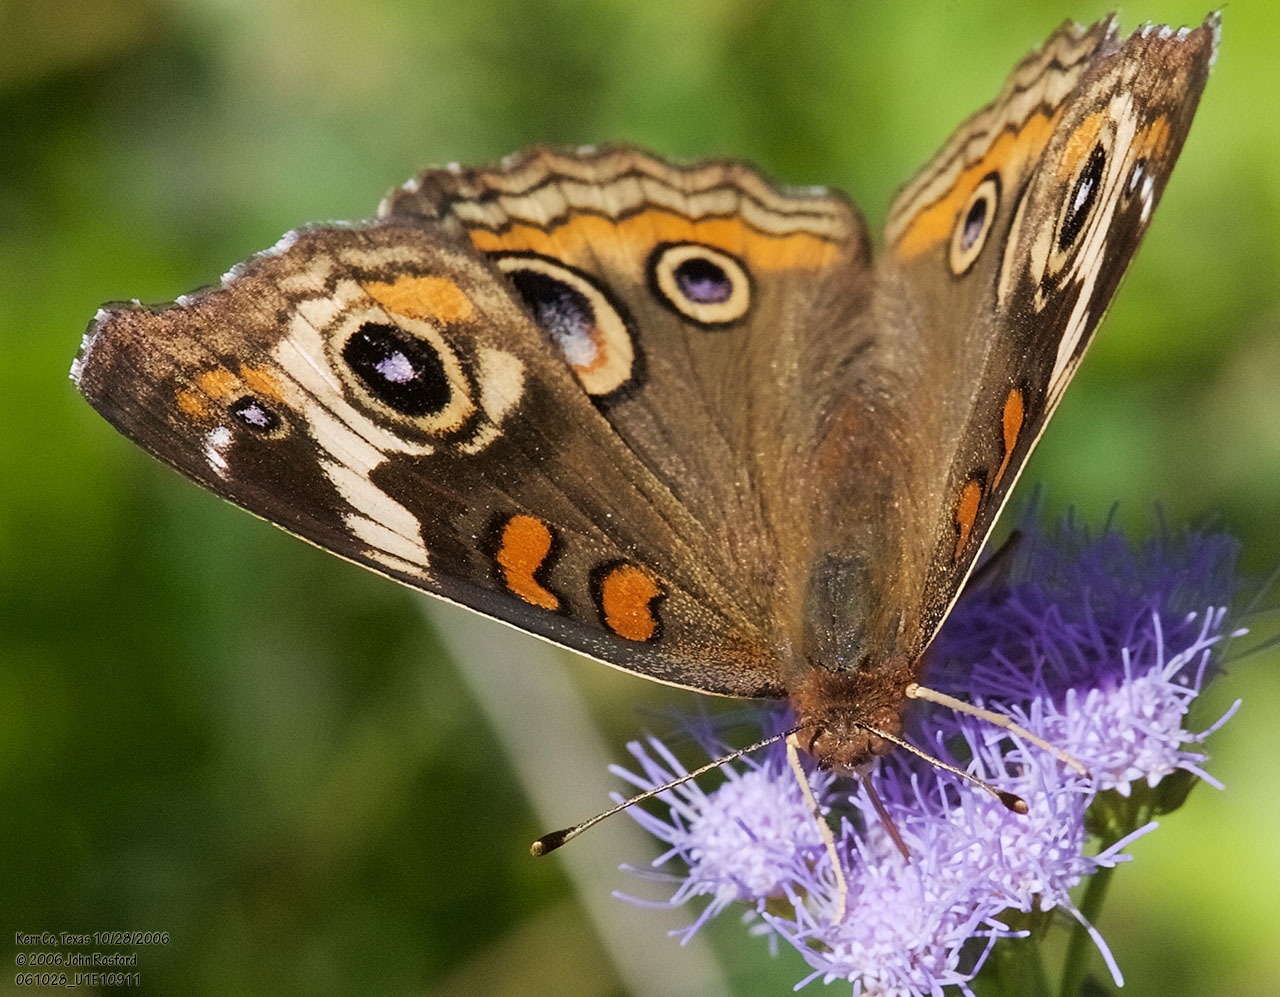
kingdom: Animalia
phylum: Arthropoda
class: Insecta
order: Lepidoptera
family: Nymphalidae
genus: Junonia
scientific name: Junonia coenia
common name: Common buckeye
